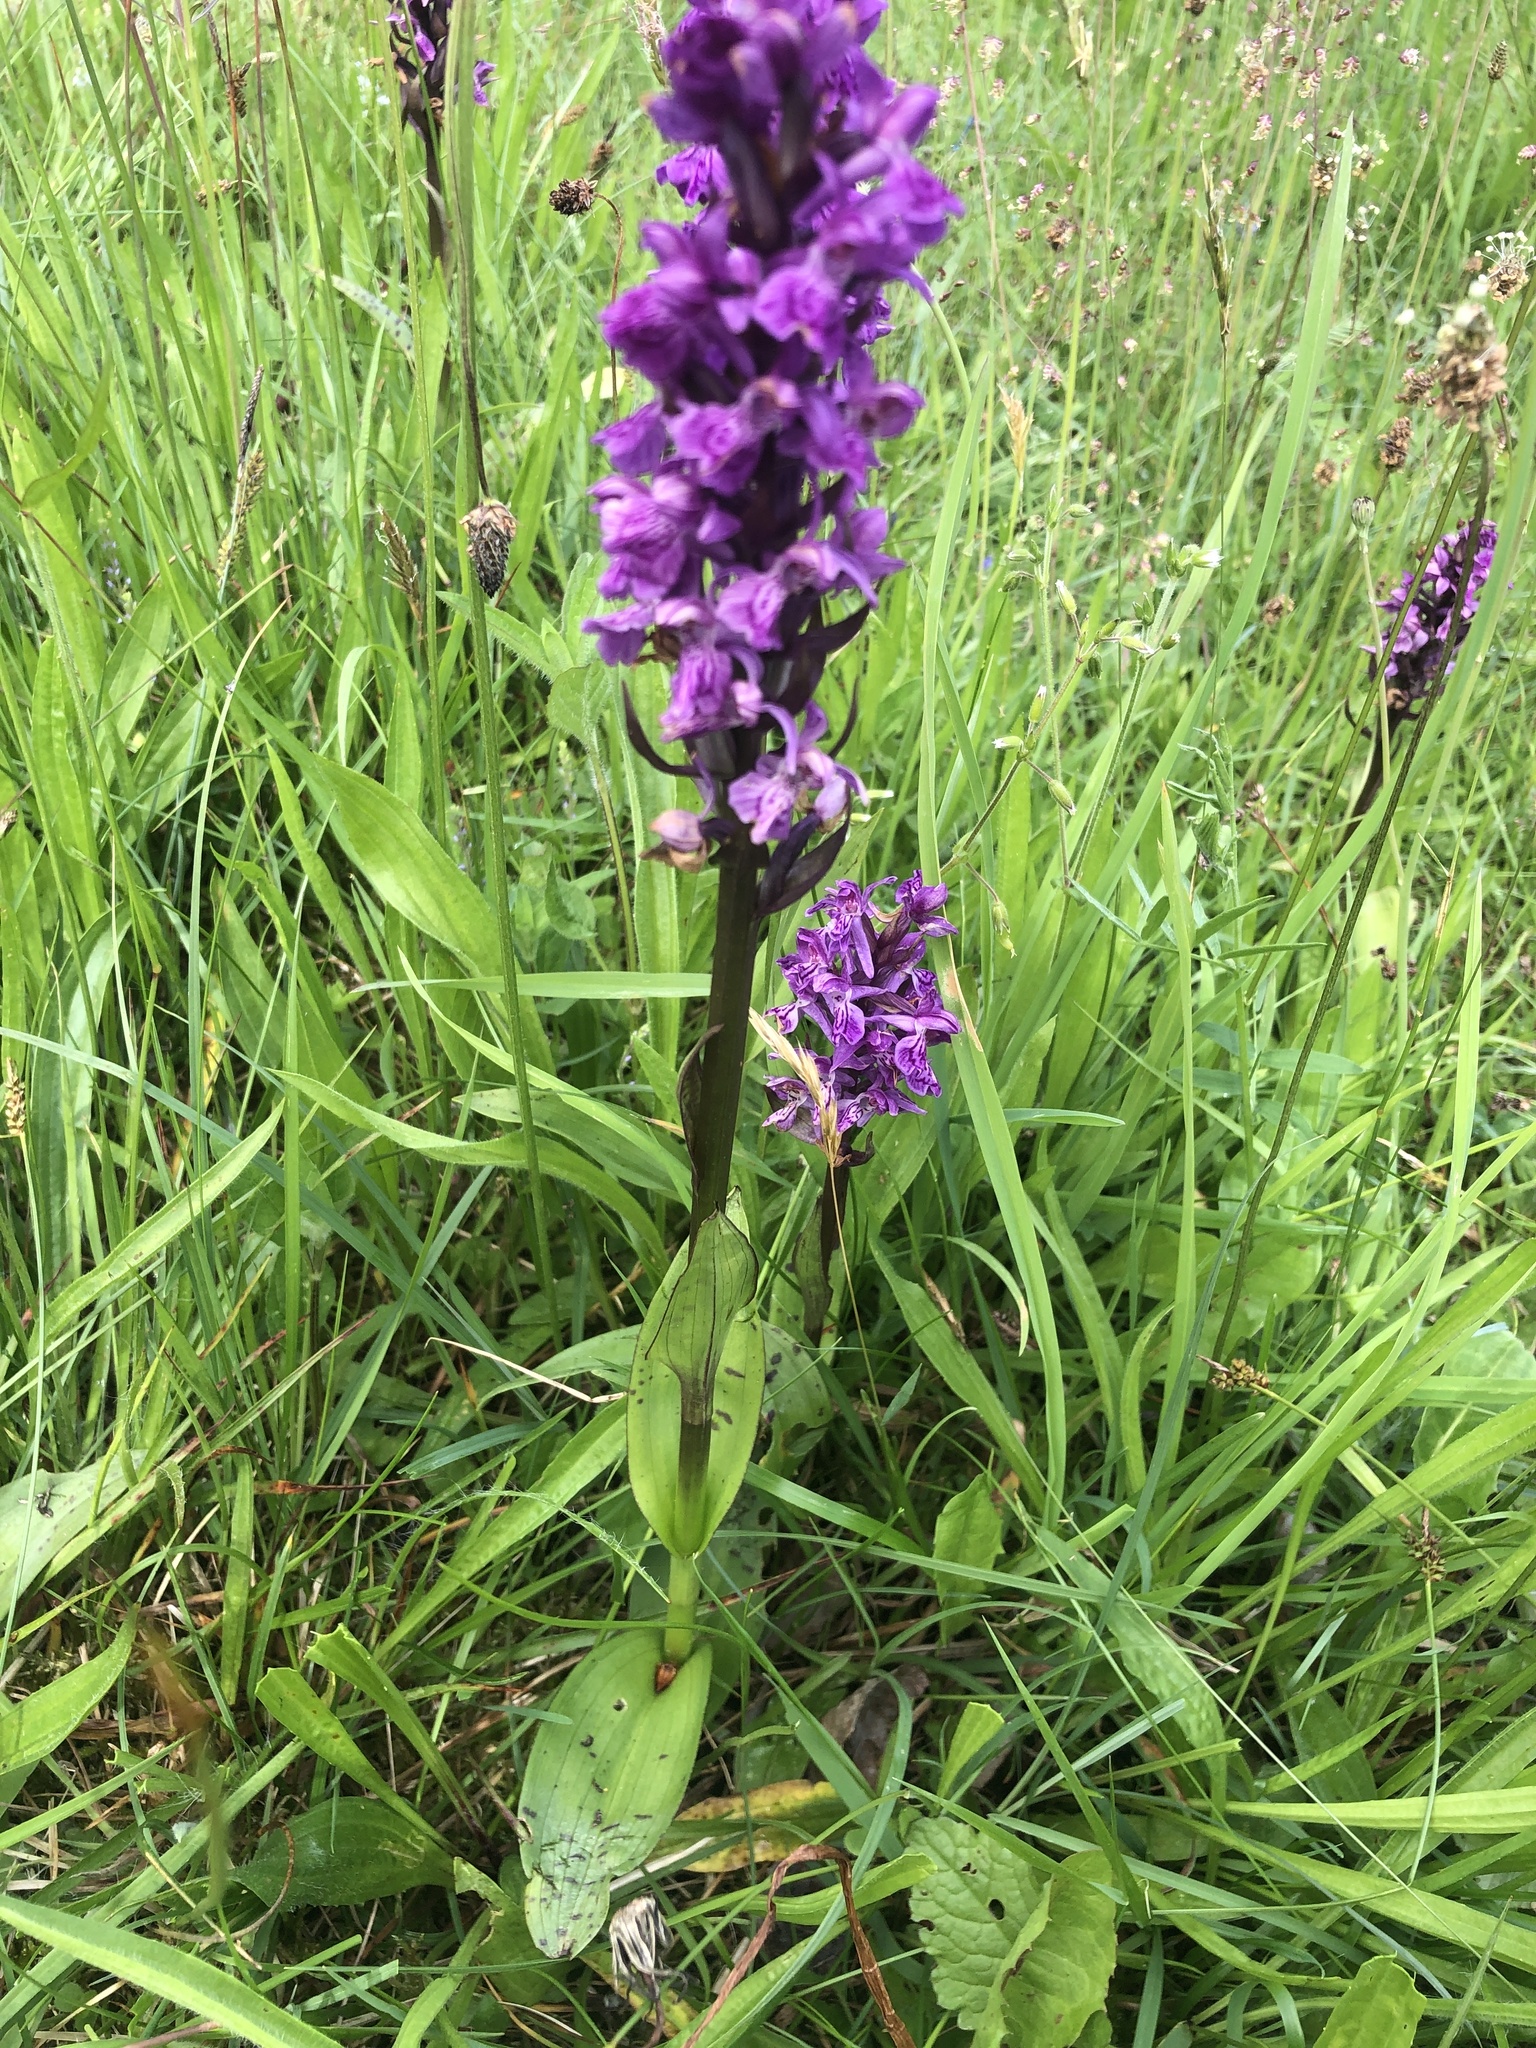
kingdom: Plantae
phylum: Tracheophyta
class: Liliopsida
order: Asparagales
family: Orchidaceae
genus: Dactylorhiza
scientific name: Dactylorhiza majalis
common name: Marsh orchid
